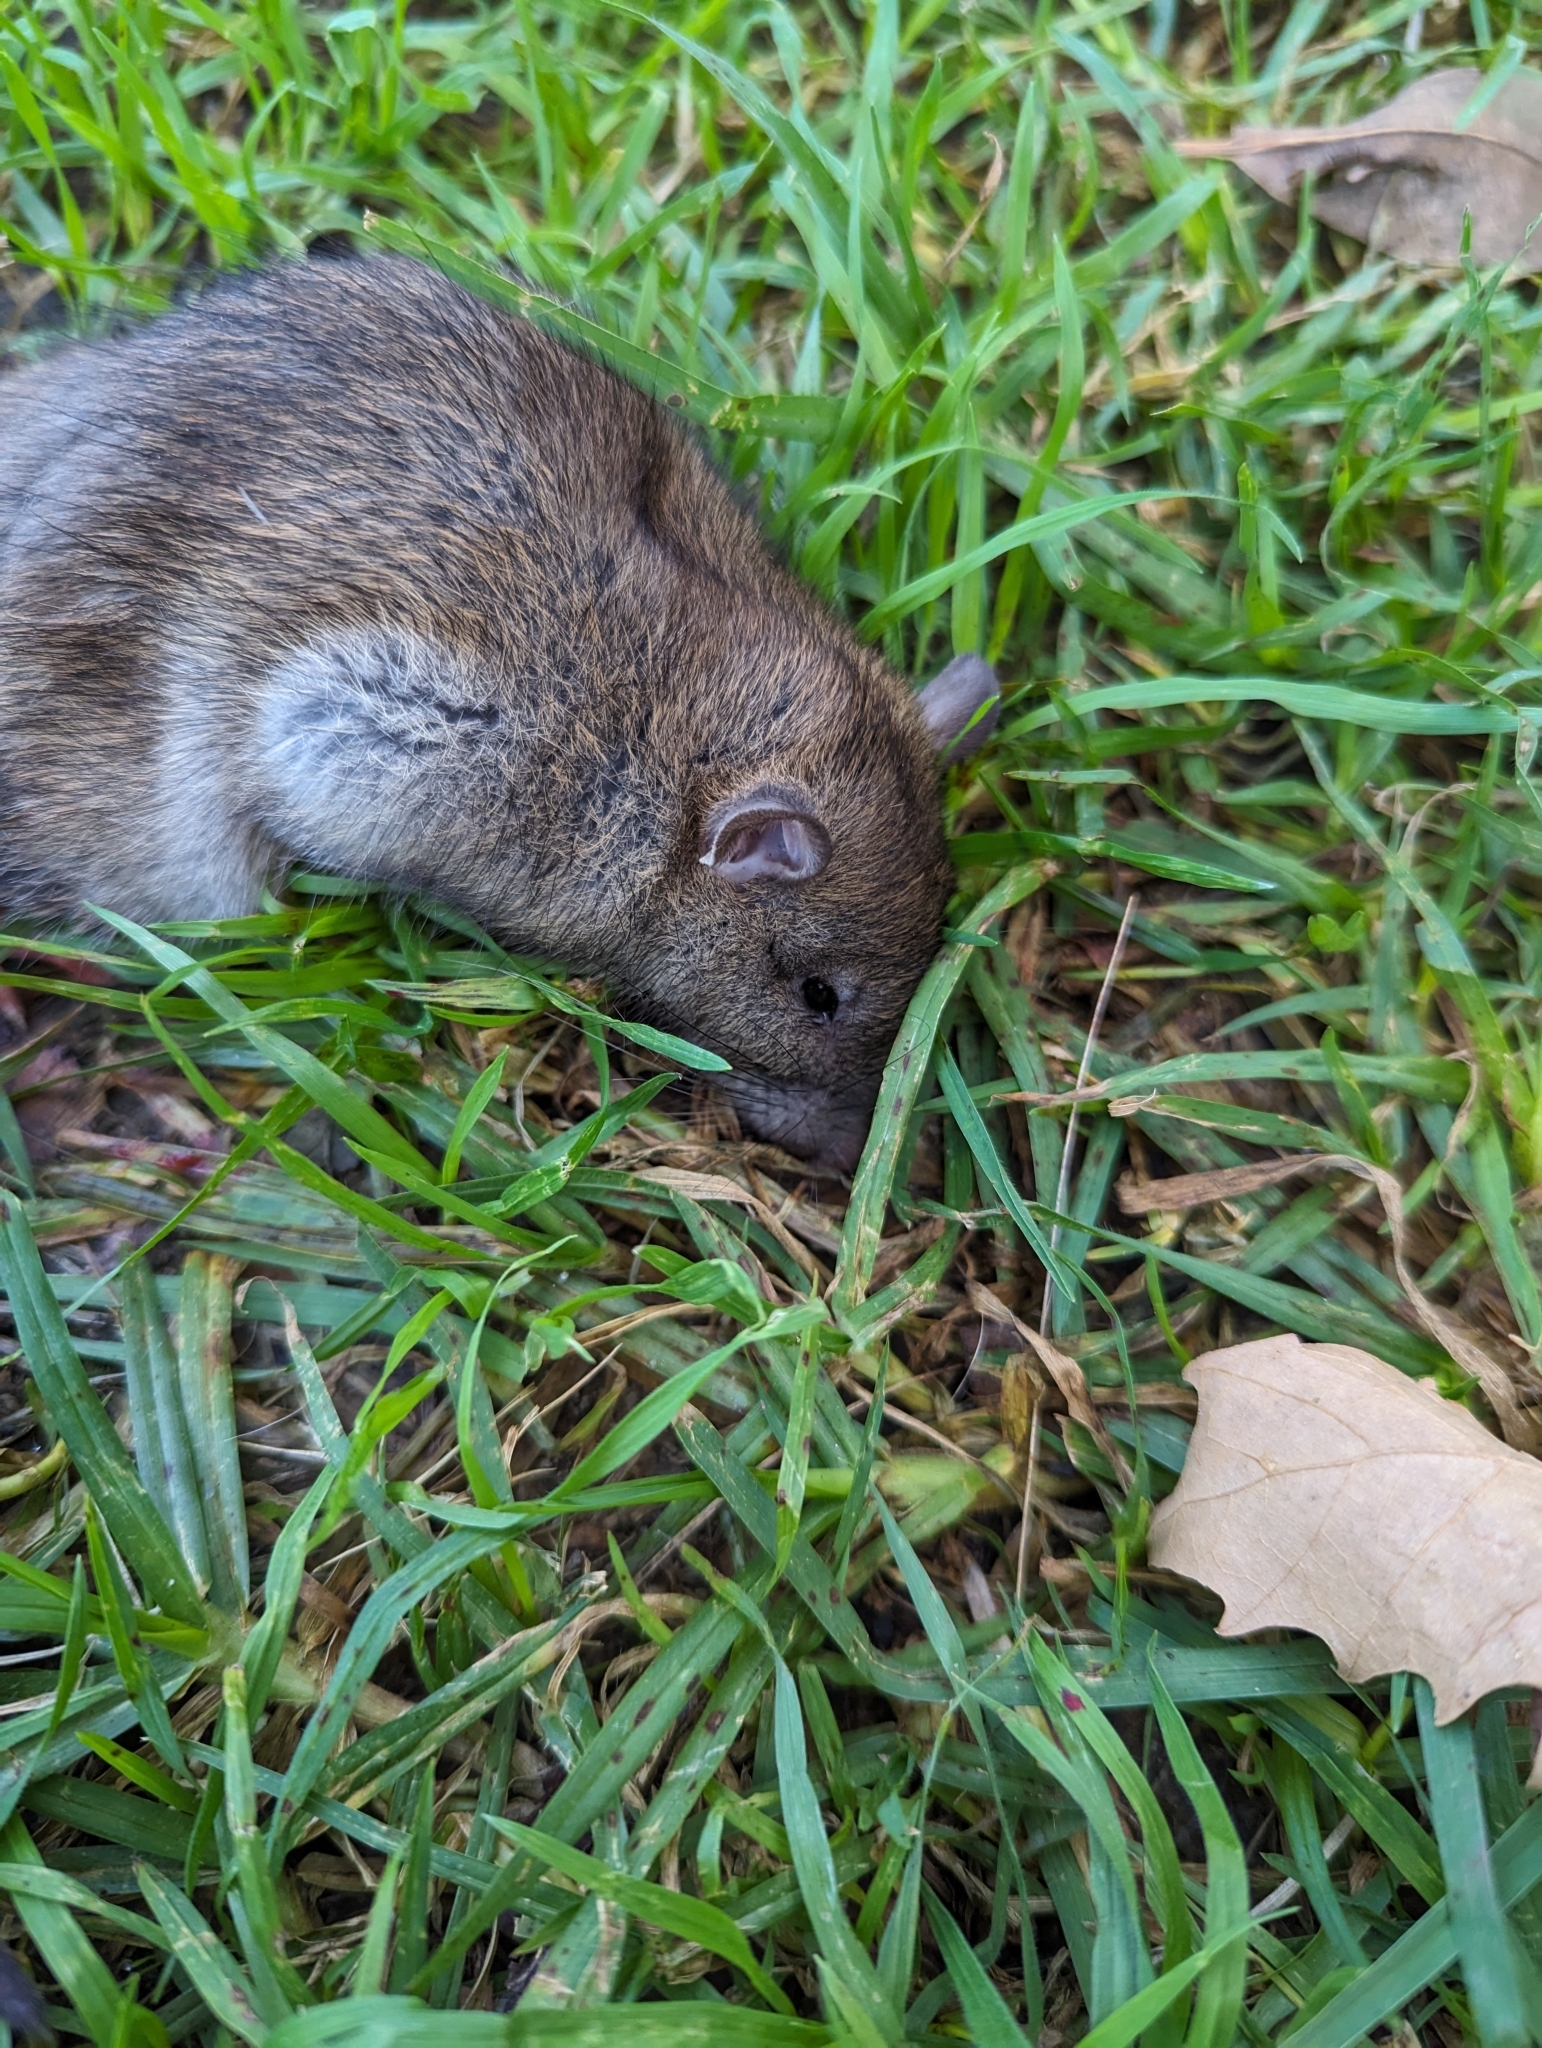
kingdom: Animalia
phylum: Chordata
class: Mammalia
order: Rodentia
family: Muridae
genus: Rattus
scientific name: Rattus rattus
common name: Black rat
